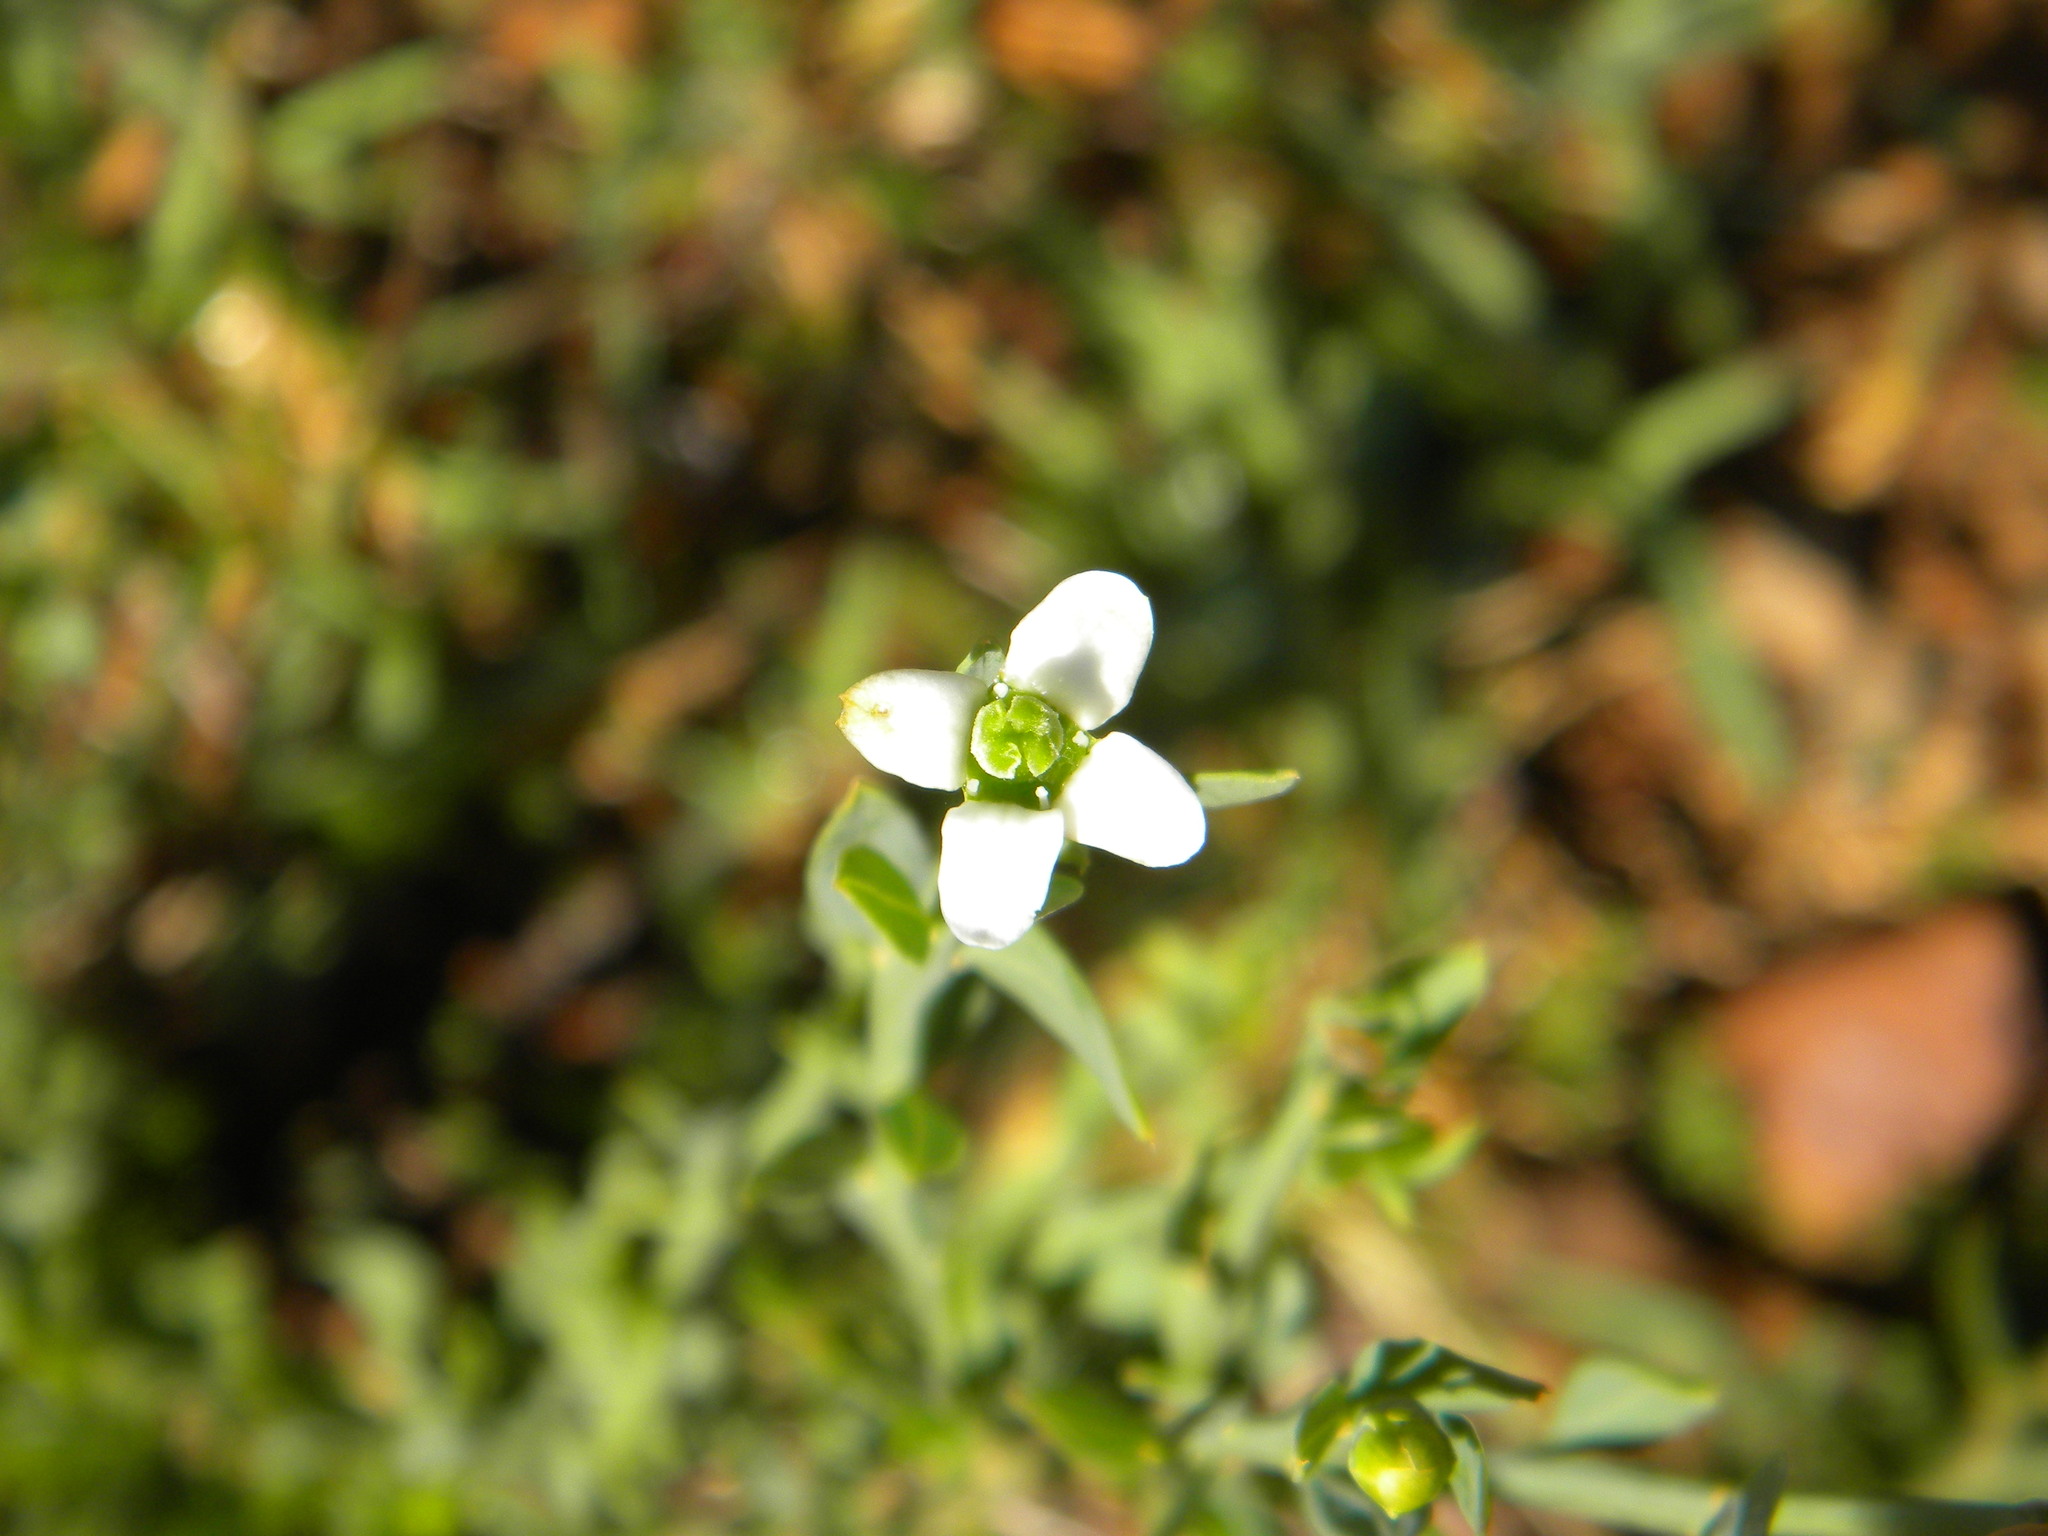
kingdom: Plantae
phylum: Tracheophyta
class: Magnoliopsida
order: Solanales
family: Montiniaceae
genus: Montinia
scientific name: Montinia caryophyllacea
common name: Wild clove-bush
